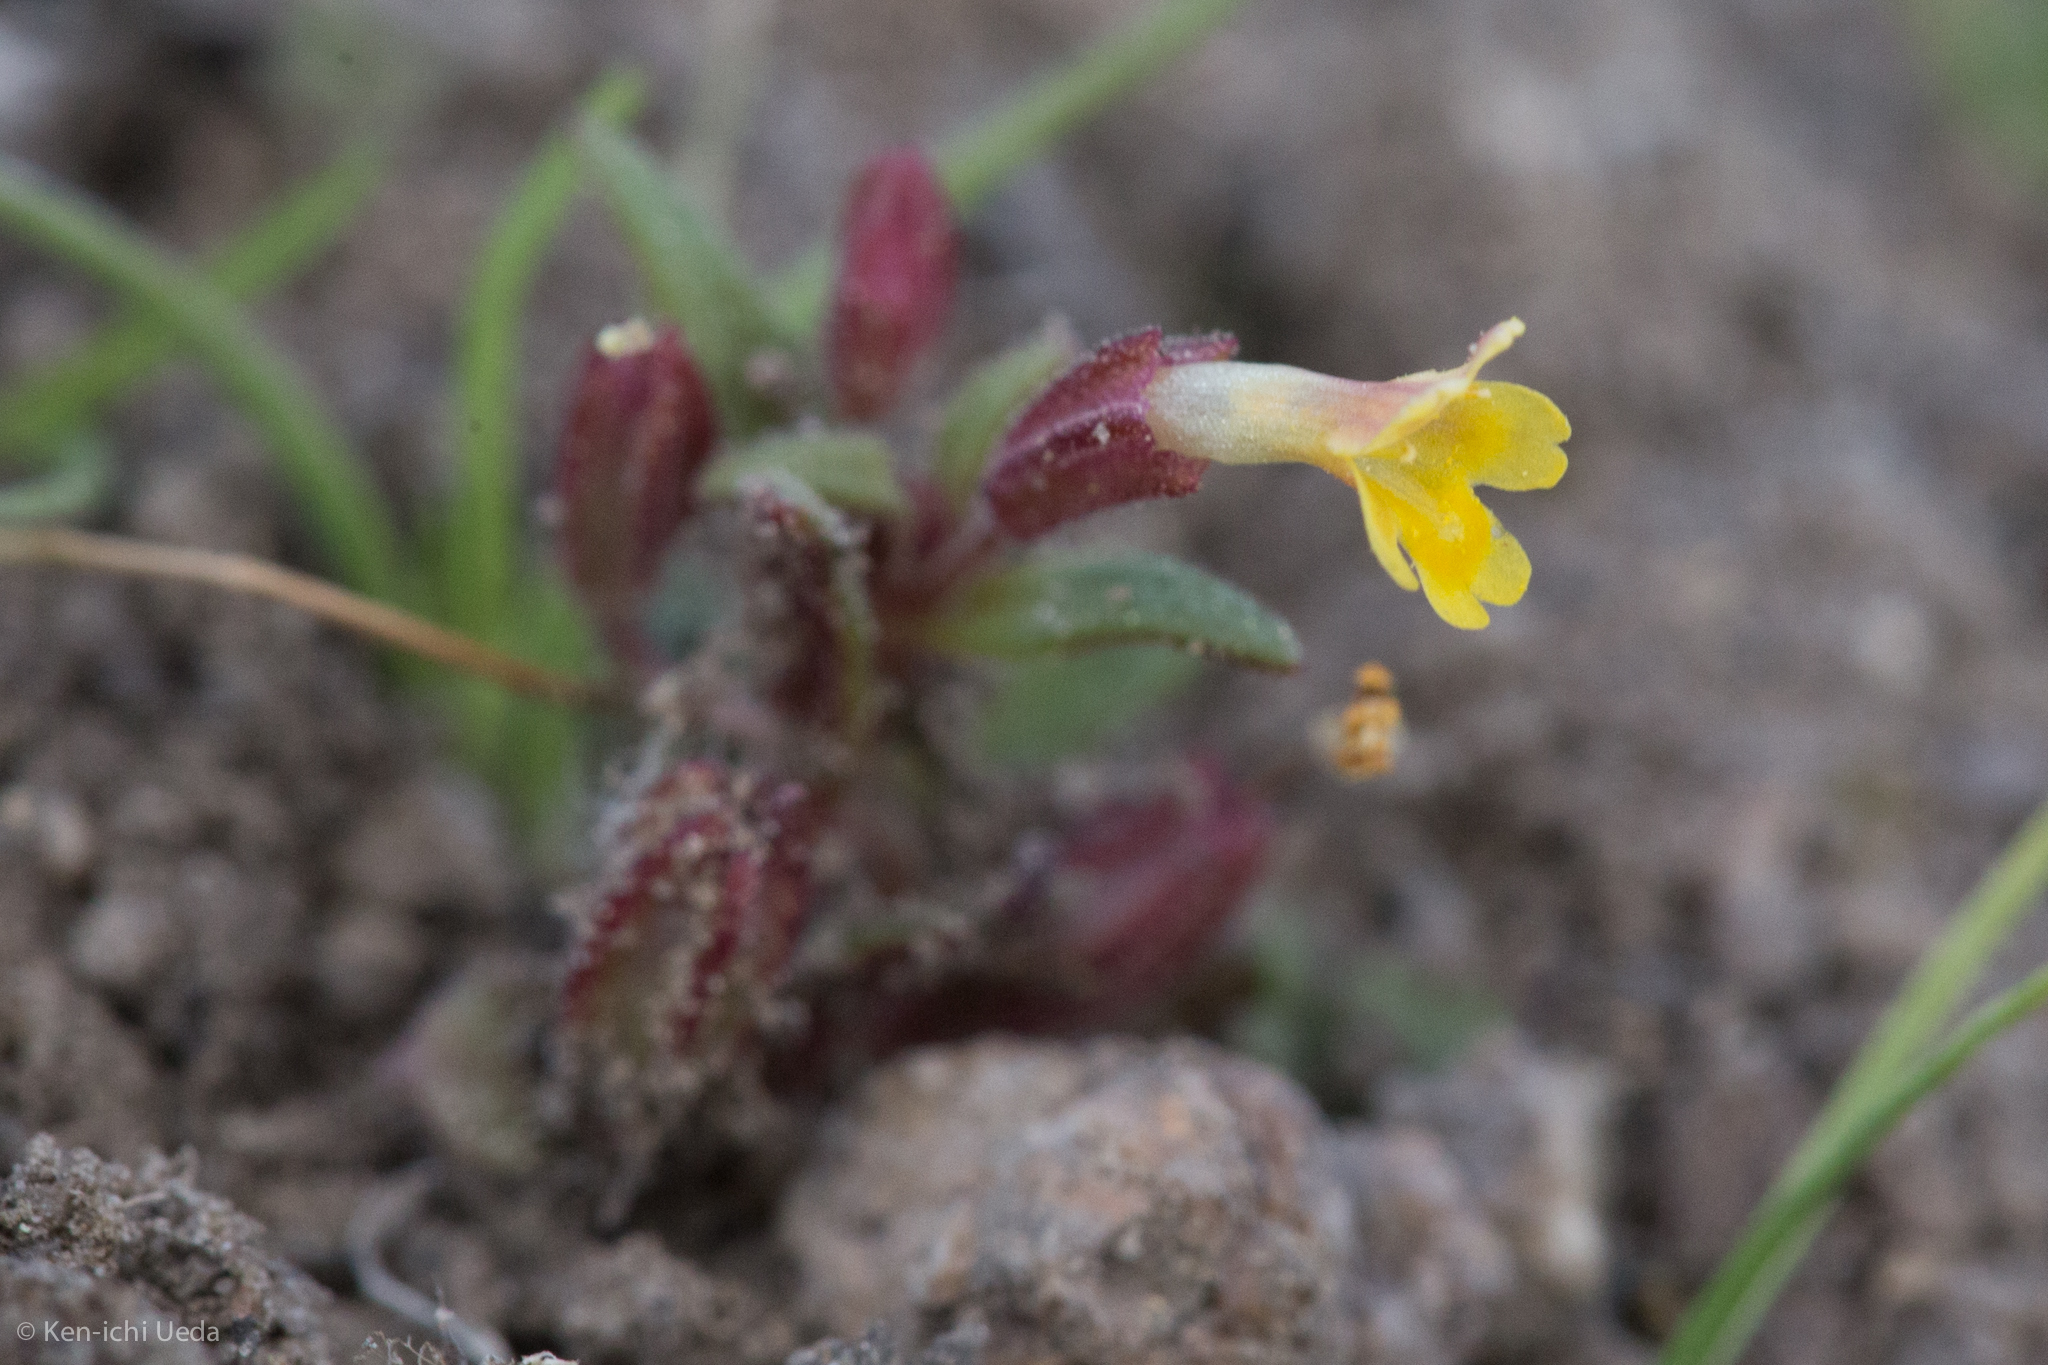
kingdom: Plantae
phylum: Tracheophyta
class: Magnoliopsida
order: Lamiales
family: Phrymaceae
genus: Erythranthe
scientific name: Erythranthe suksdorfii
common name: Suksdorf's monkeyflower
